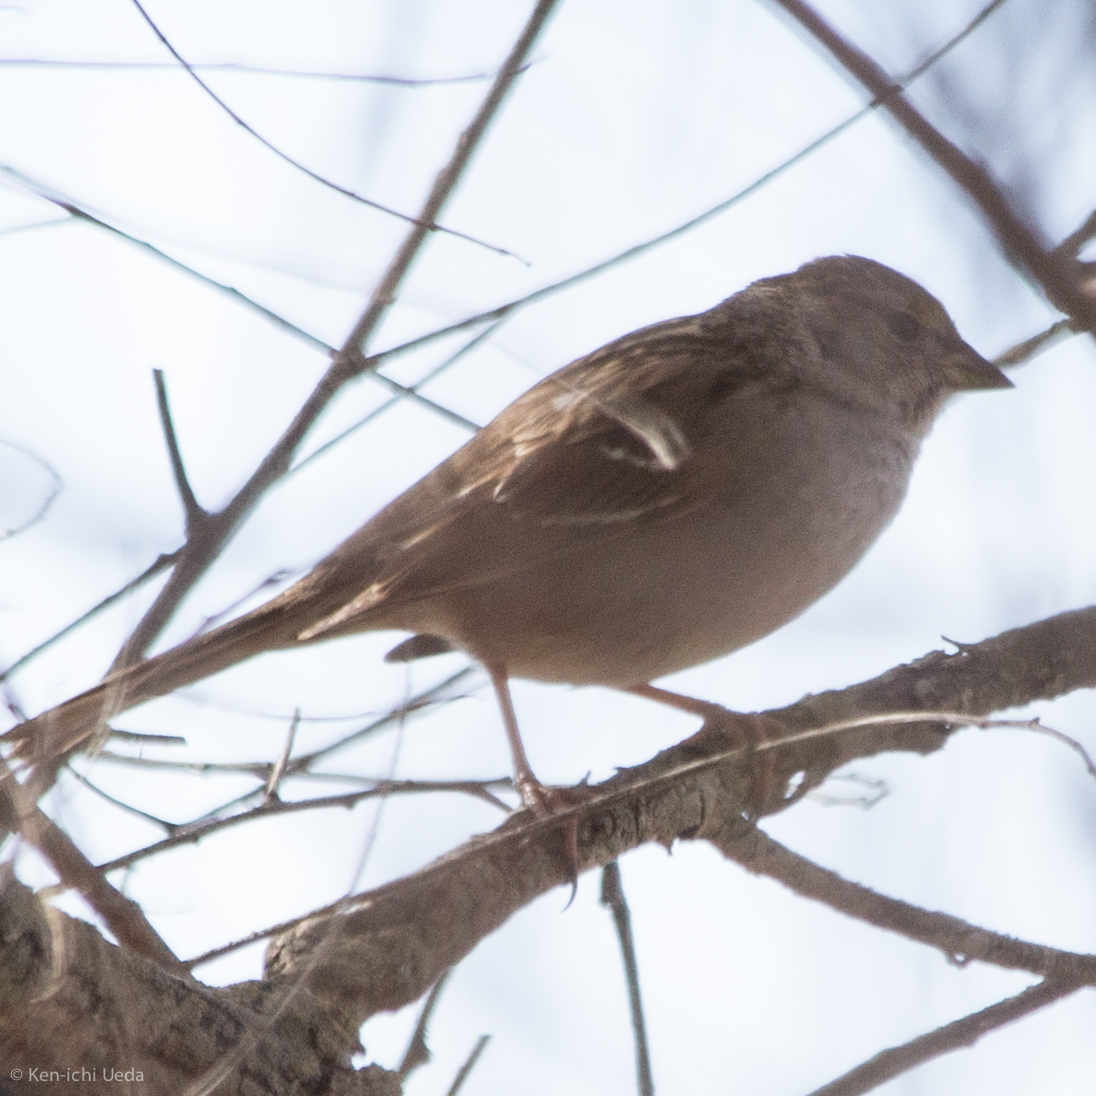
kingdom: Animalia
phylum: Chordata
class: Aves
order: Passeriformes
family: Passerellidae
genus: Zonotrichia
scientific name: Zonotrichia atricapilla
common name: Golden-crowned sparrow
